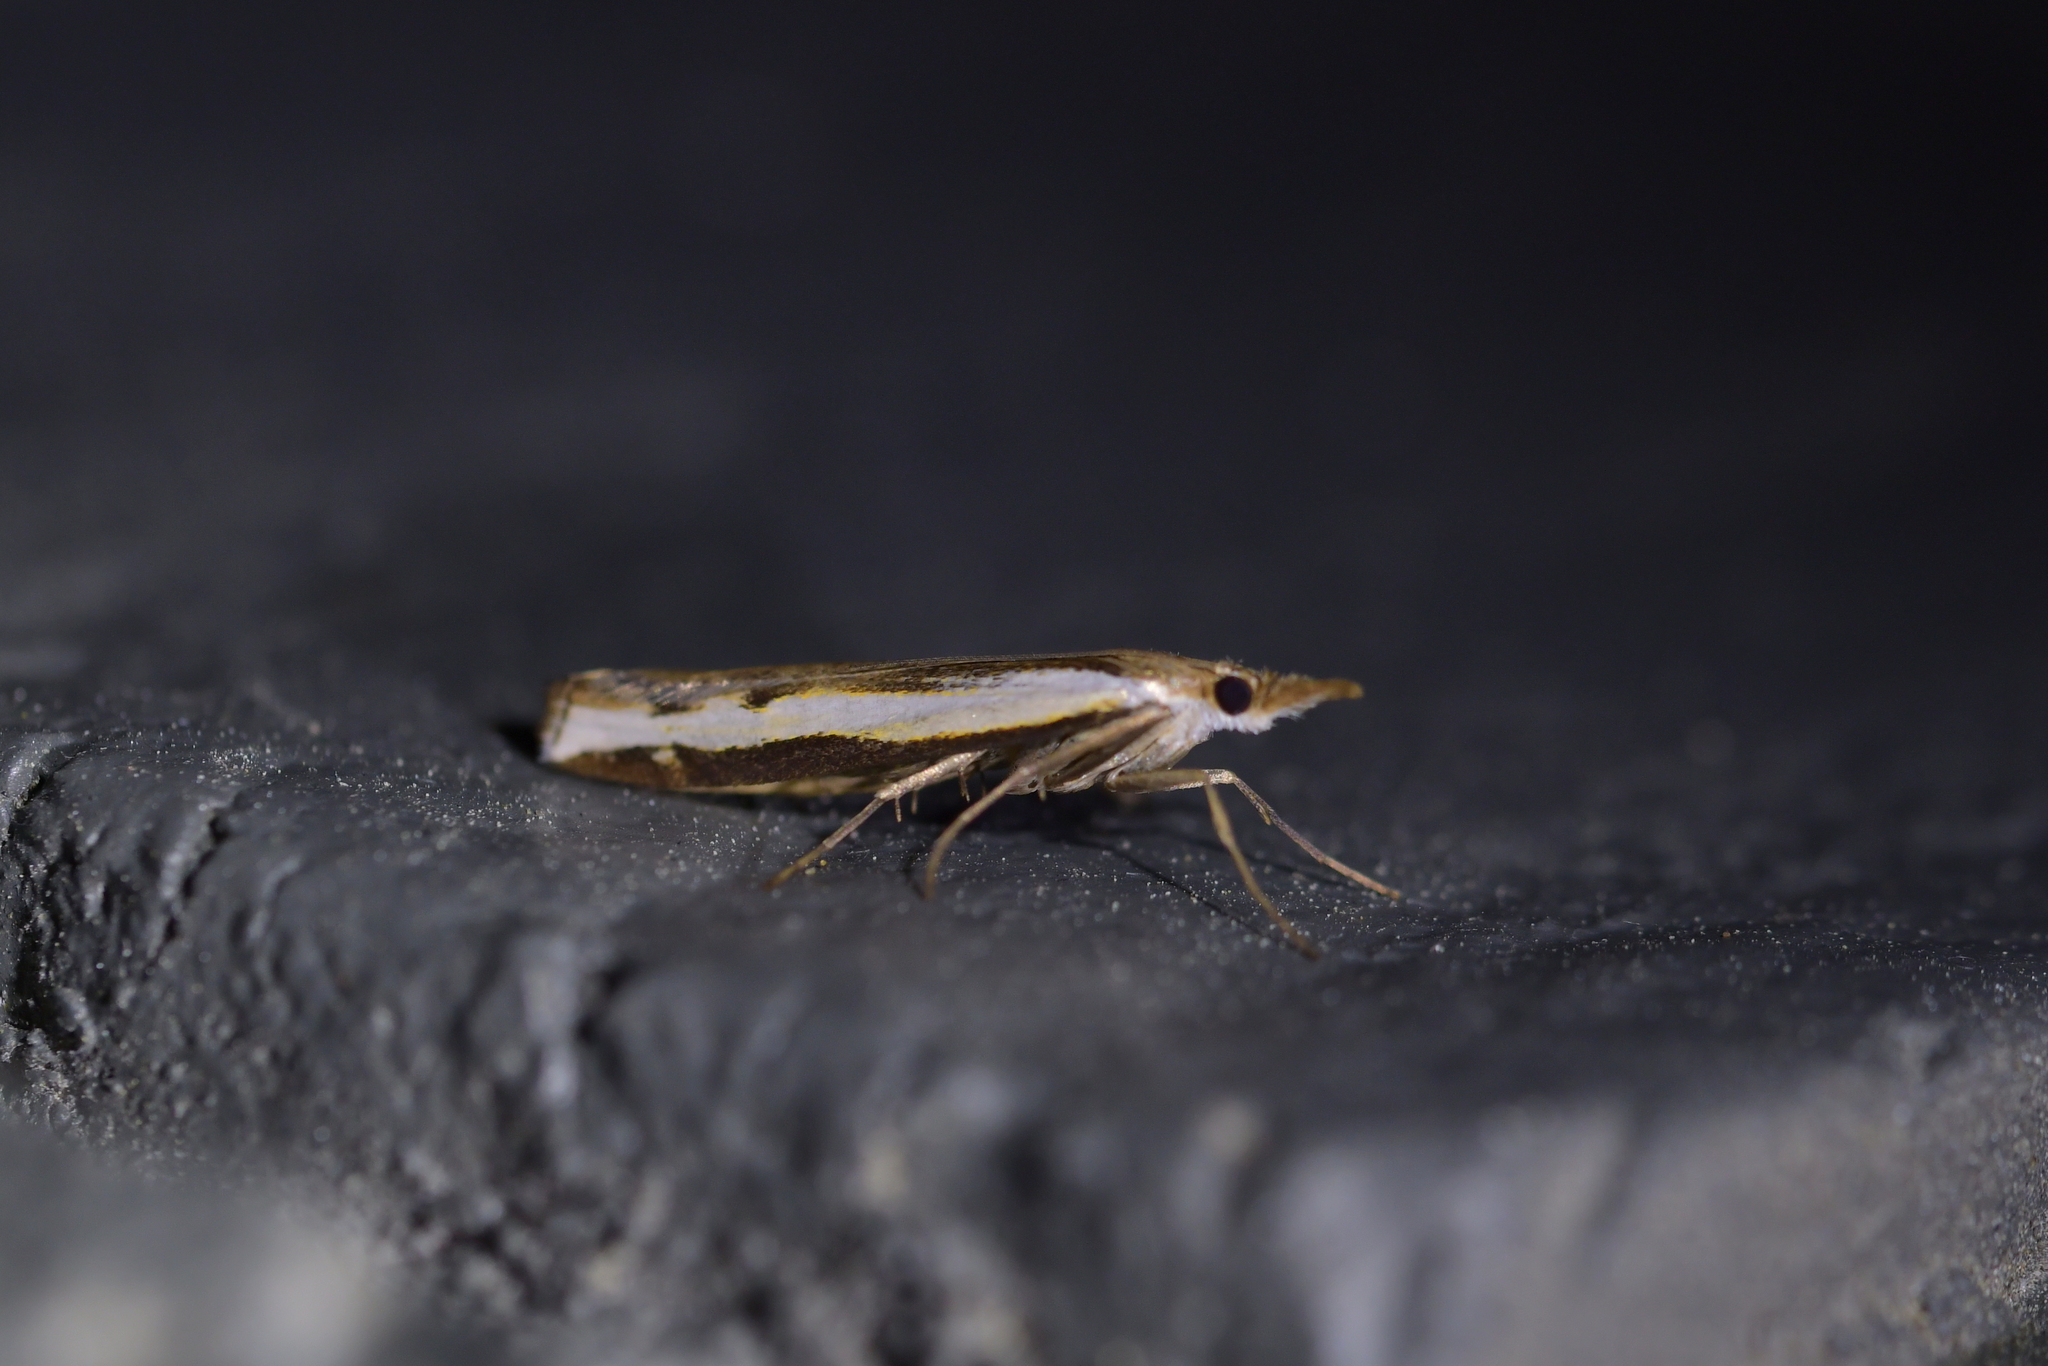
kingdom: Animalia
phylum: Arthropoda
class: Insecta
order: Lepidoptera
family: Crambidae
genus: Orocrambus
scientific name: Orocrambus flexuosellus
